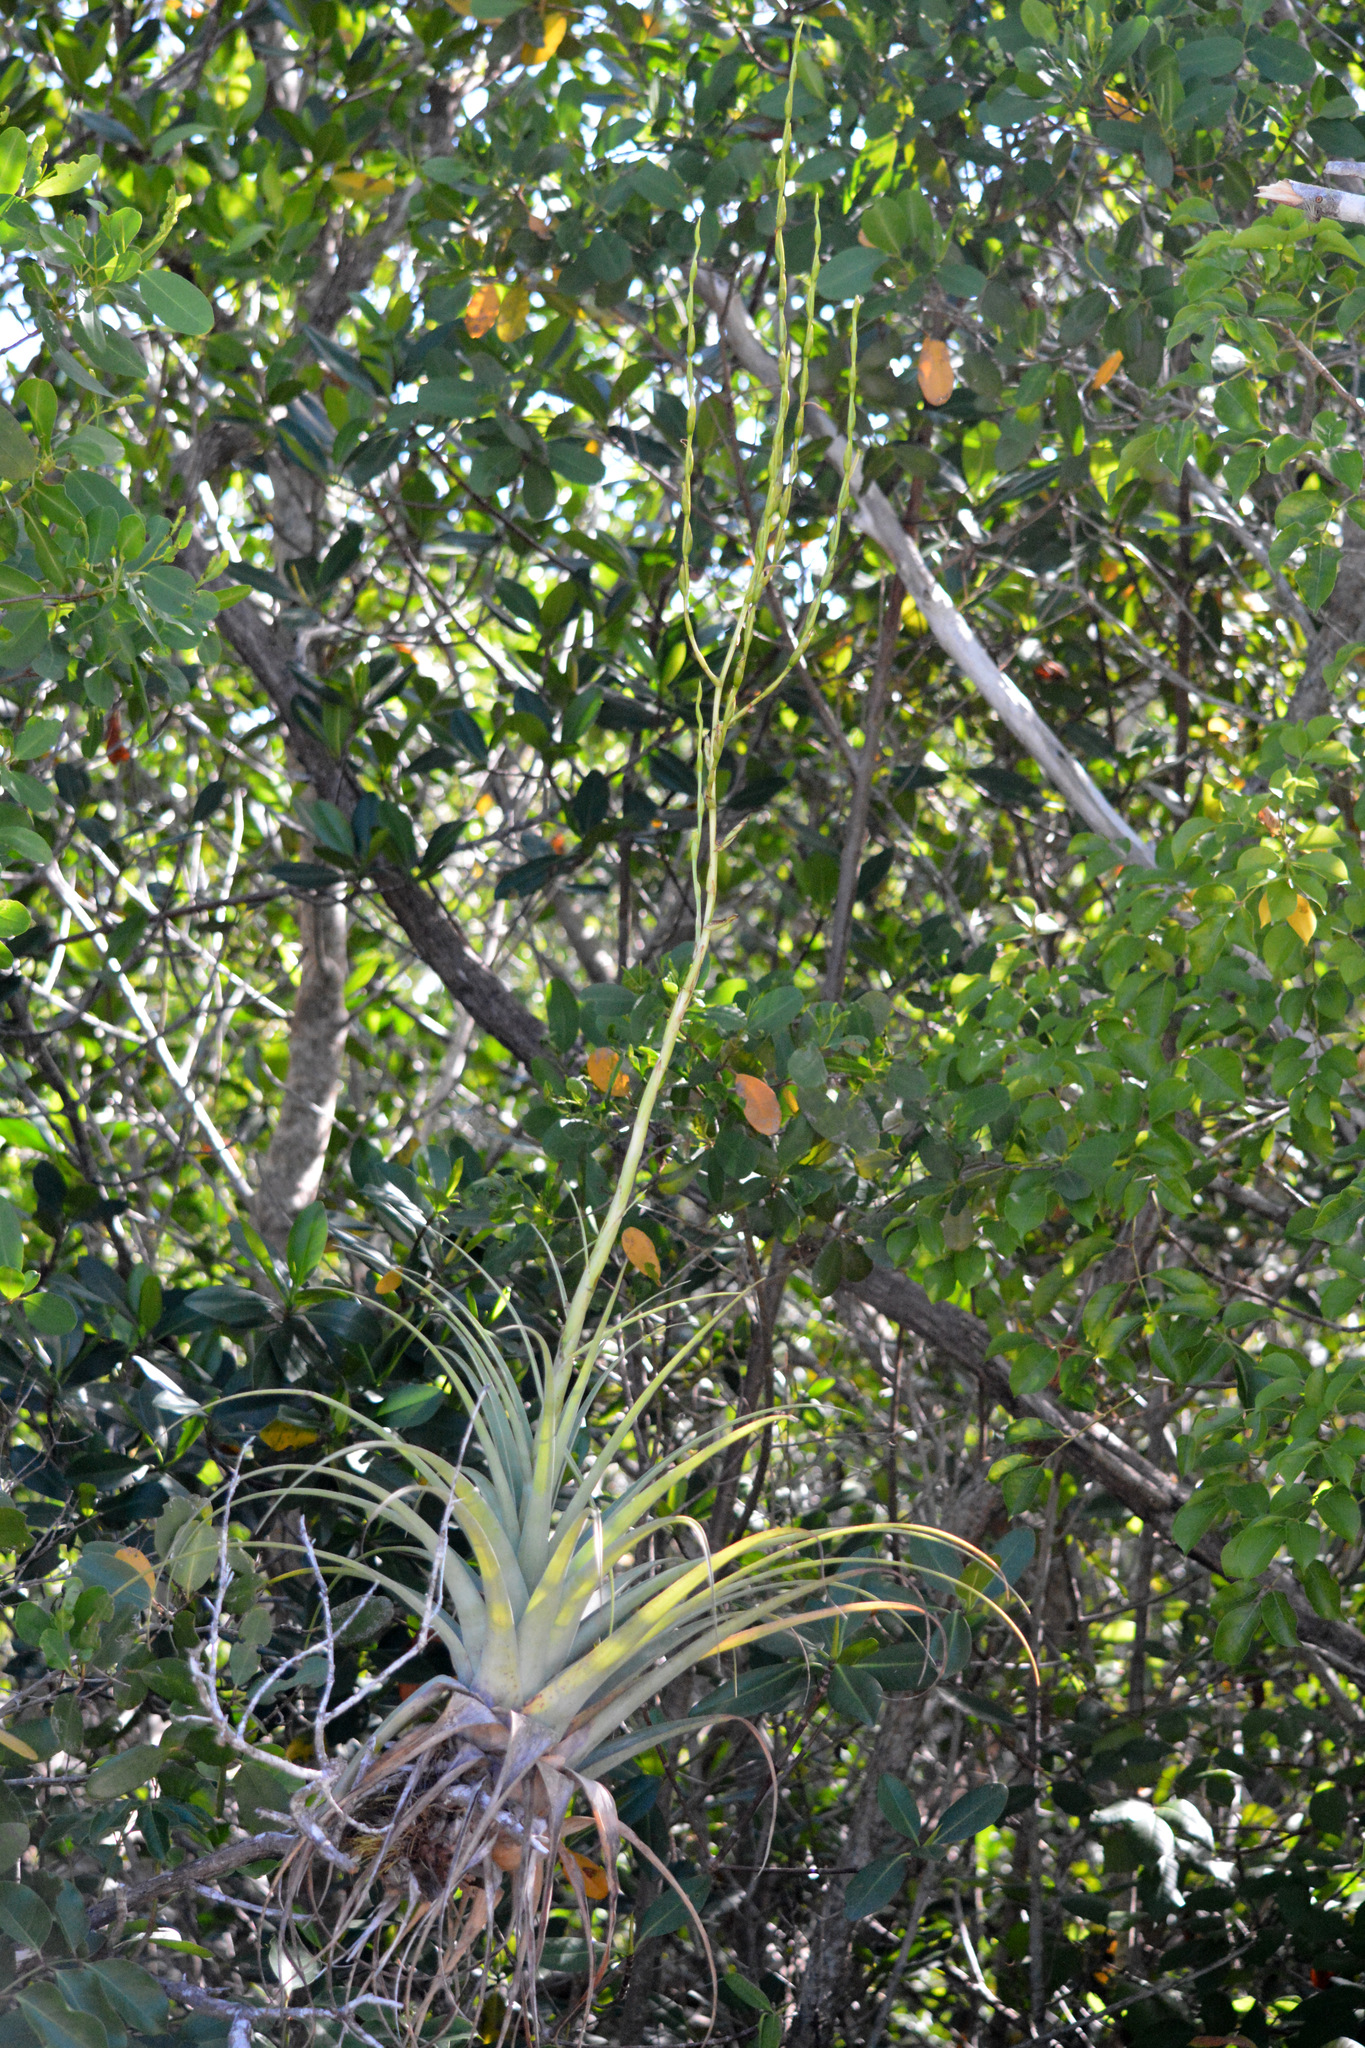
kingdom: Plantae
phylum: Tracheophyta
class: Liliopsida
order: Poales
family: Bromeliaceae
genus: Tillandsia
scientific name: Tillandsia utriculata
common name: Wild pine
